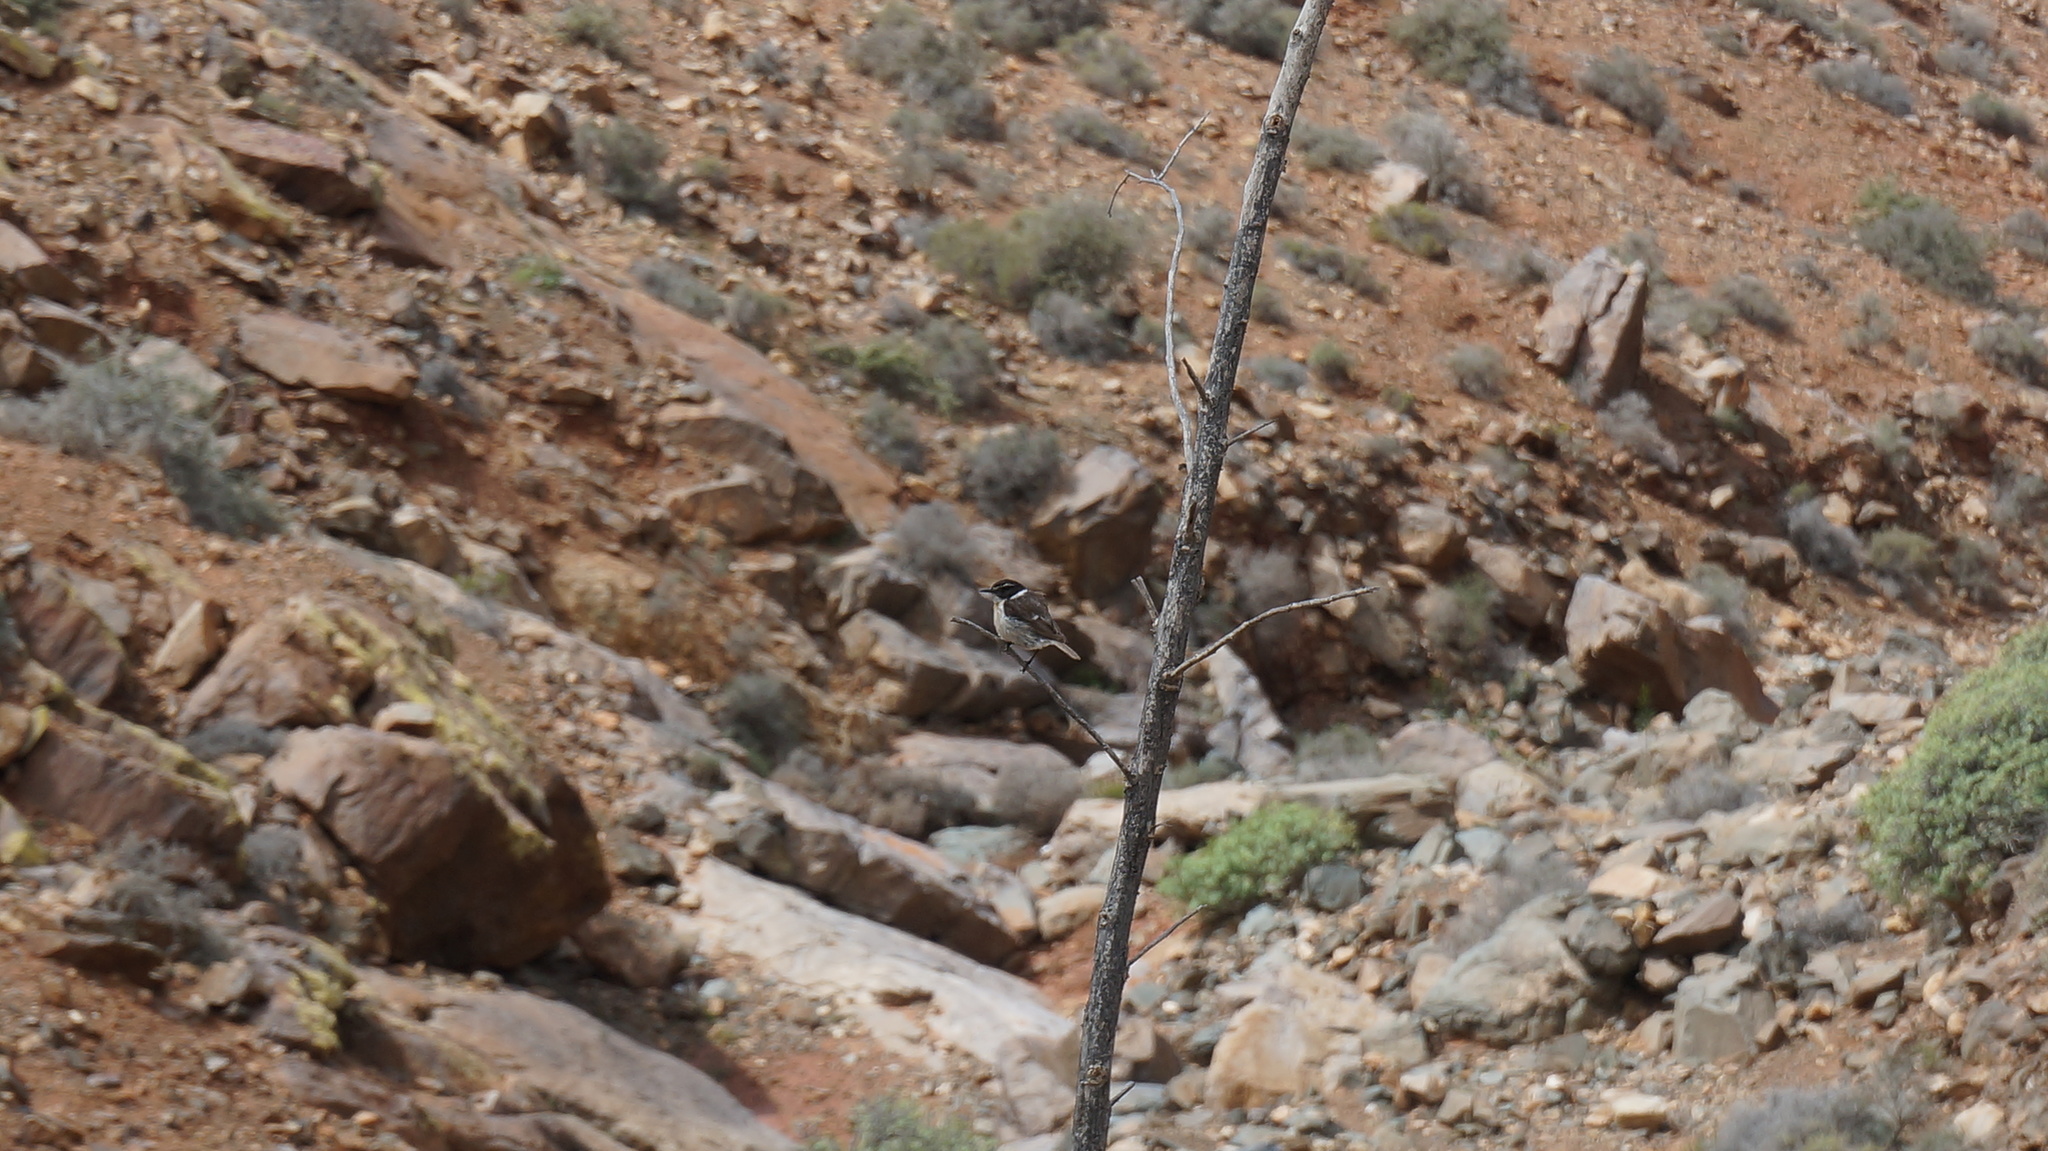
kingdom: Animalia
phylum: Chordata
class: Aves
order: Passeriformes
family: Muscicapidae
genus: Saxicola
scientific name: Saxicola dacotiae
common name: Canary islands stonechat
